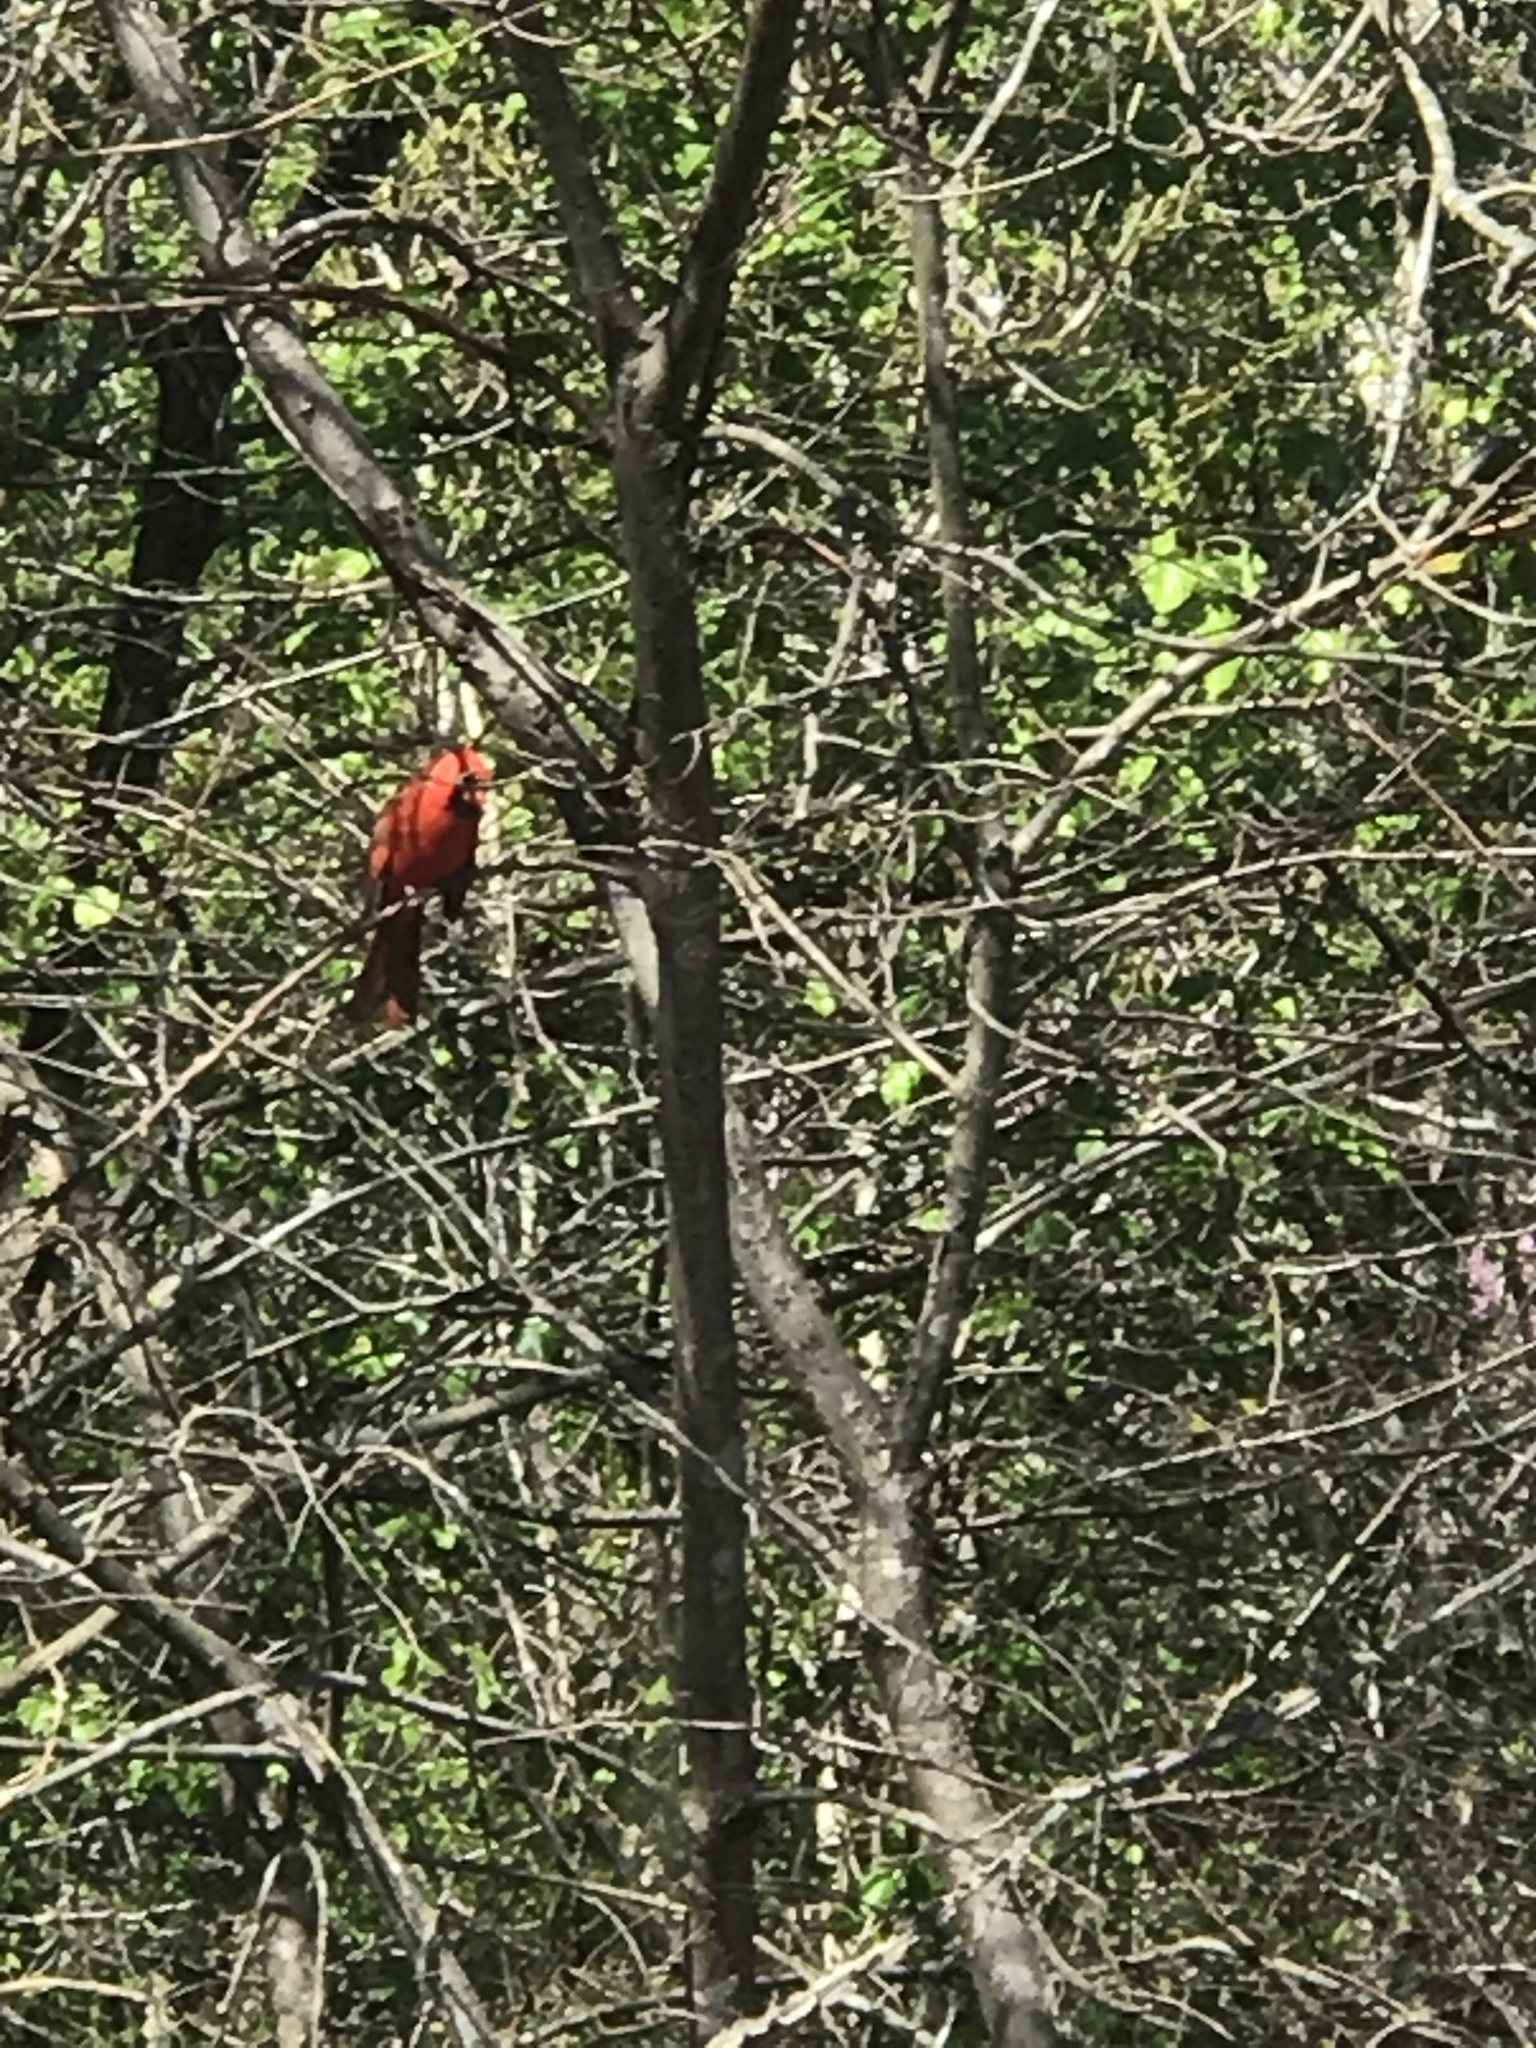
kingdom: Animalia
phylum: Chordata
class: Aves
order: Passeriformes
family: Cardinalidae
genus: Cardinalis
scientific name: Cardinalis cardinalis
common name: Northern cardinal
